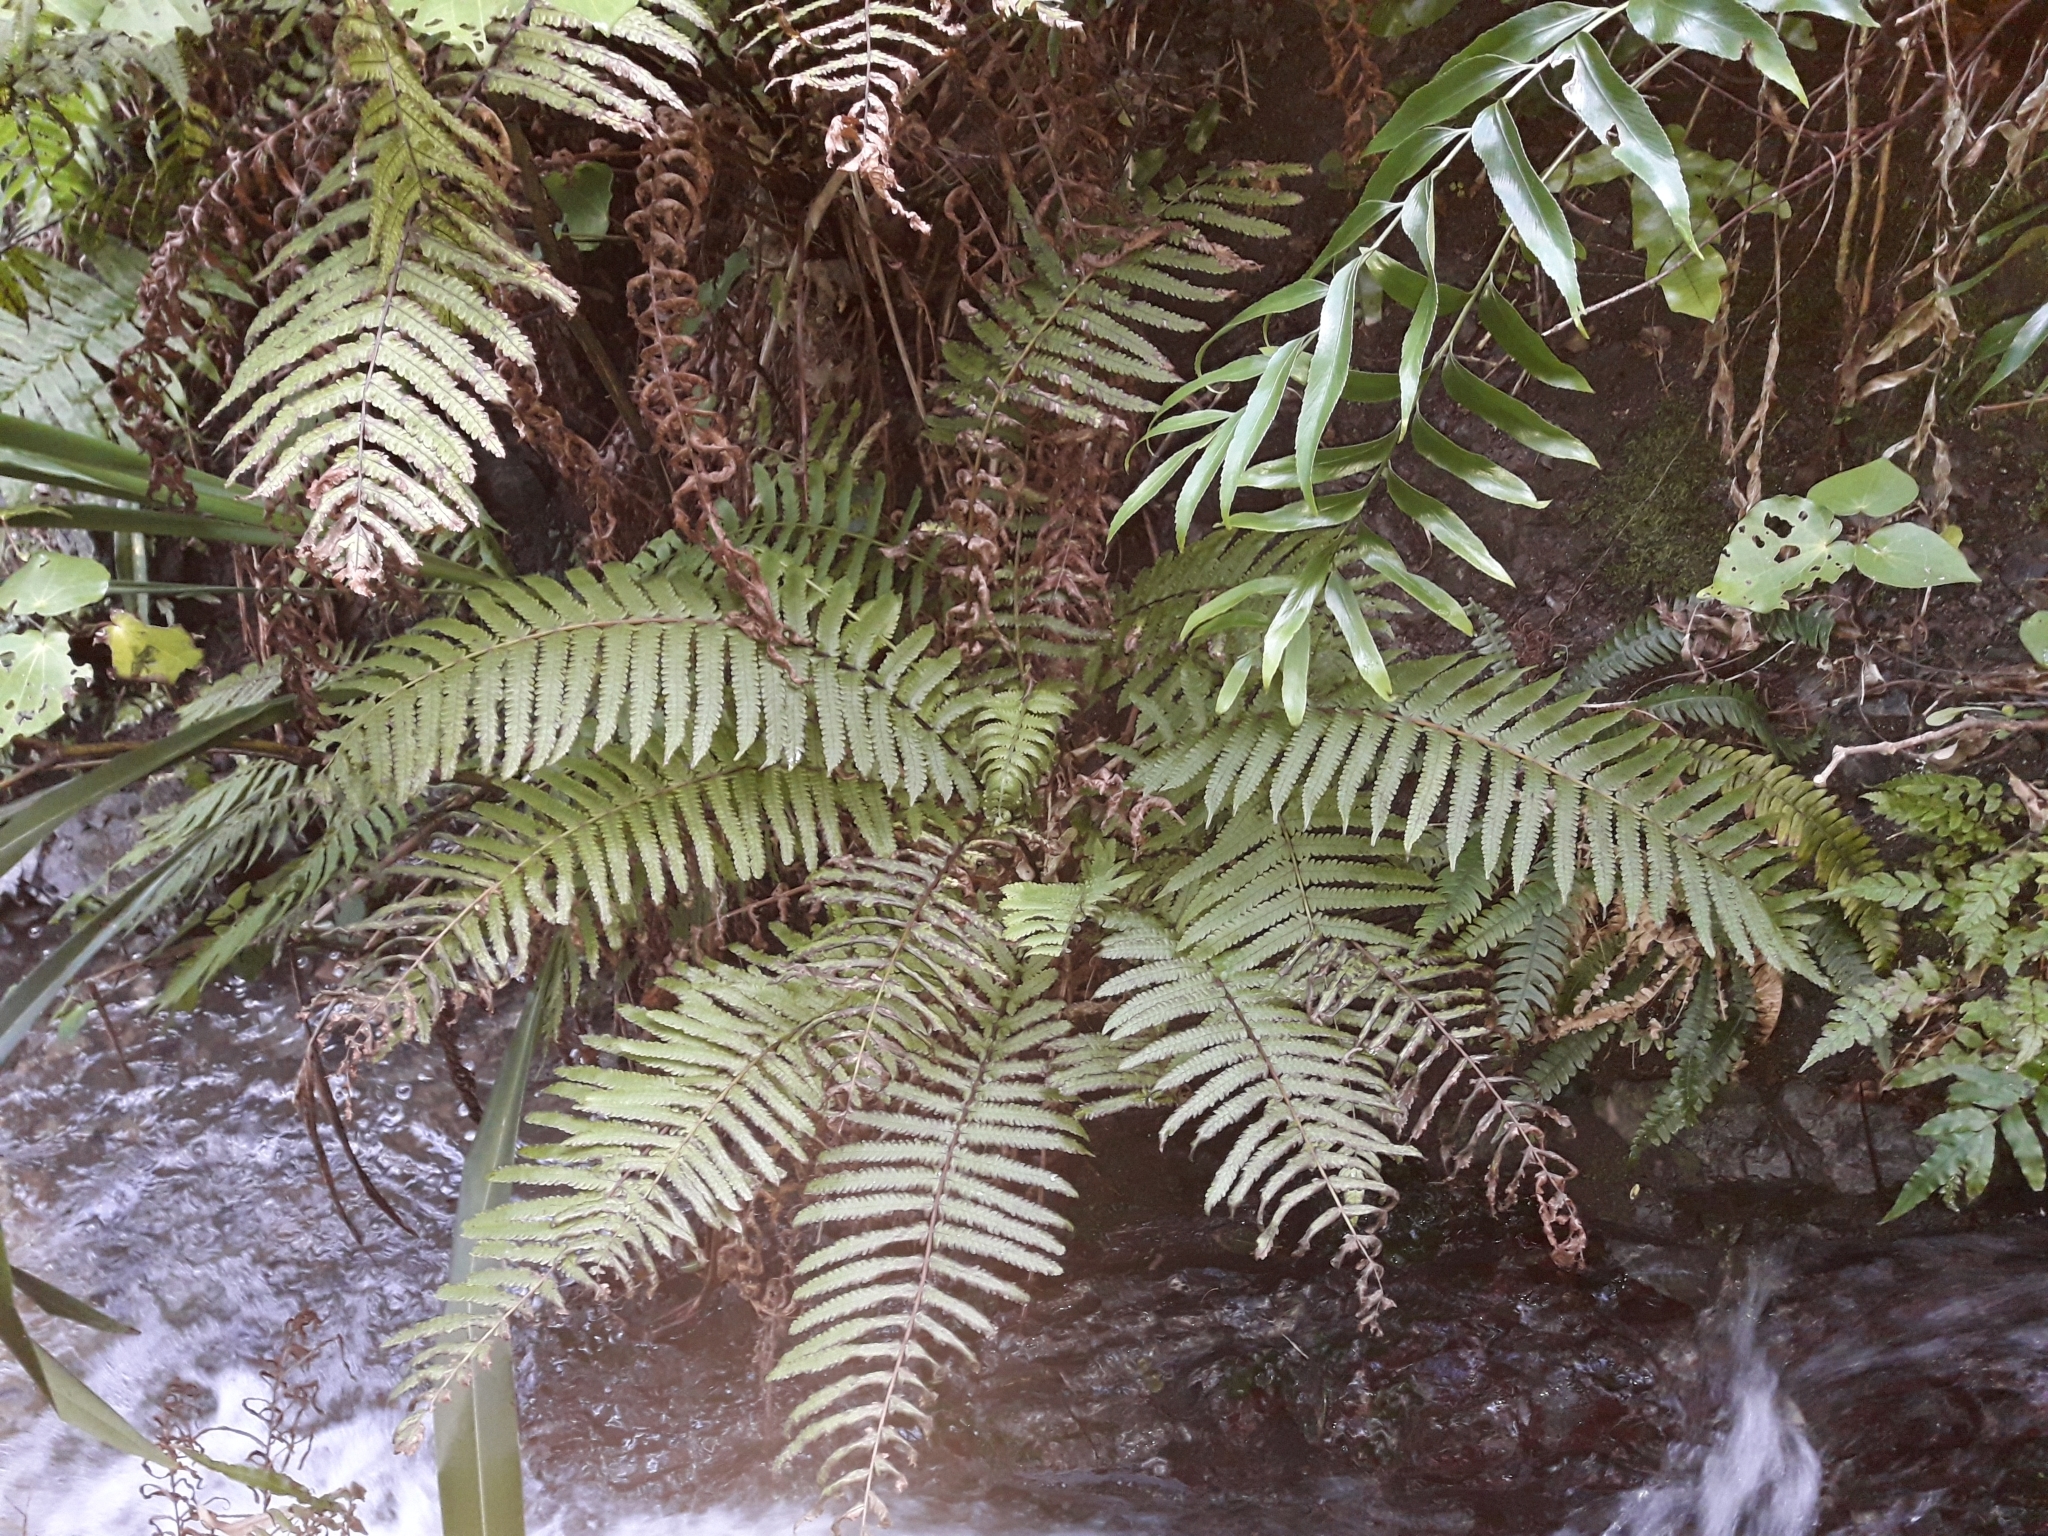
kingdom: Plantae
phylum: Tracheophyta
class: Polypodiopsida
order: Polypodiales
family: Thelypteridaceae
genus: Pakau
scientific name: Pakau pennigera
